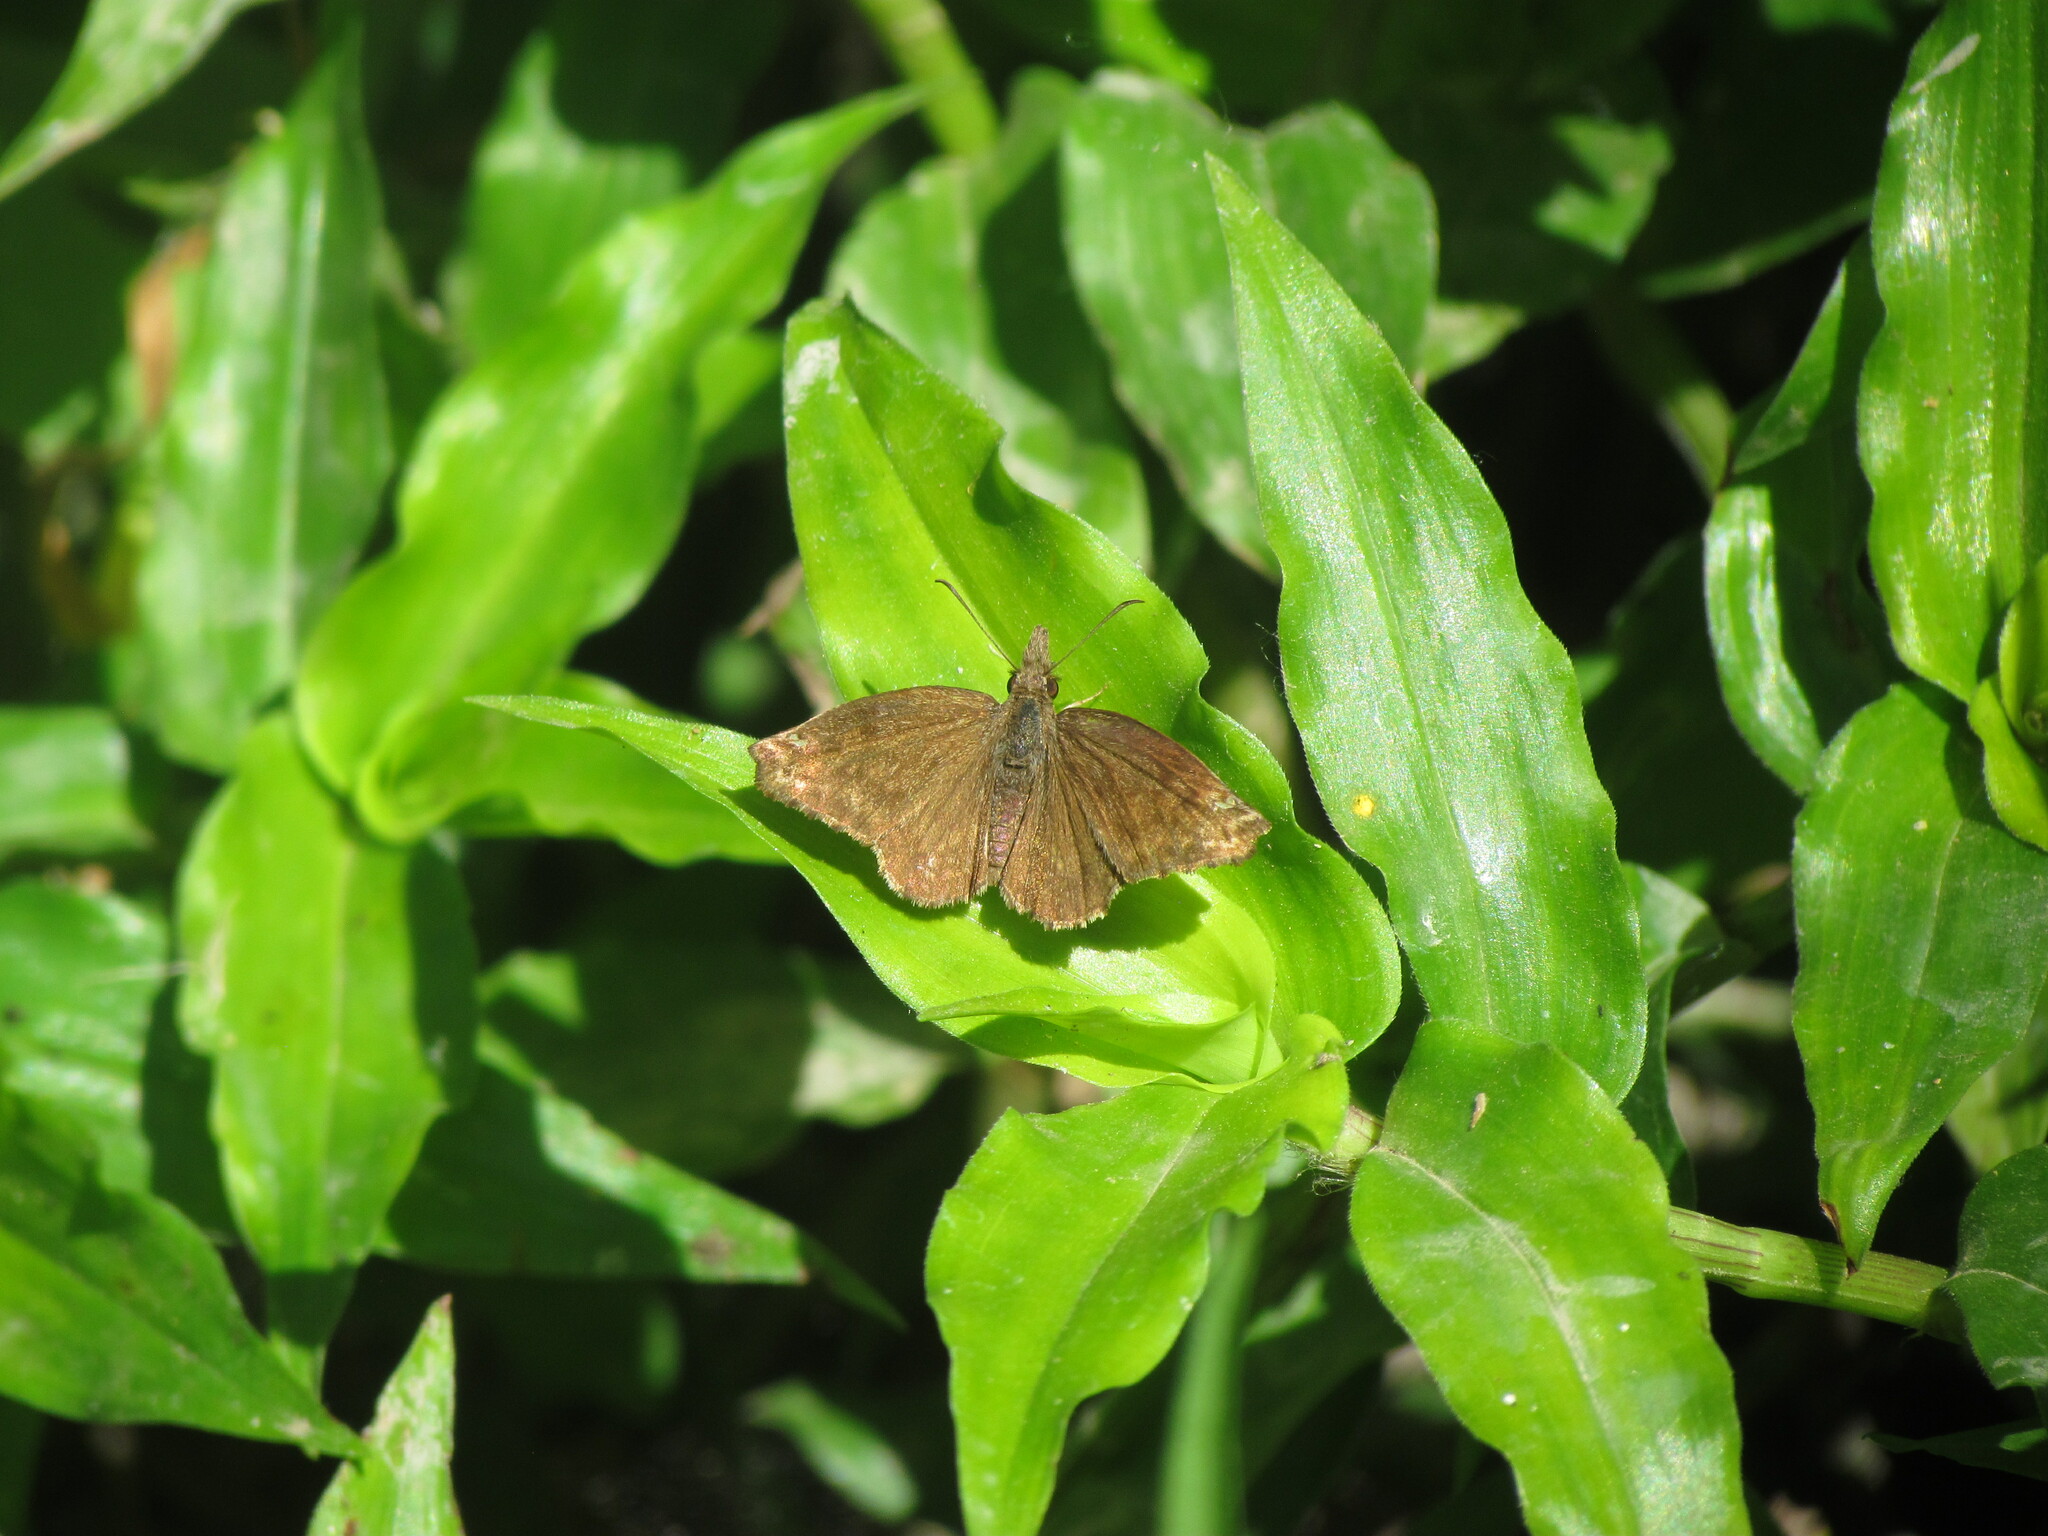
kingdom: Animalia
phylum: Arthropoda
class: Insecta
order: Lepidoptera
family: Hesperiidae
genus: Anisochoria
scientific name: Anisochoria sublimbata
